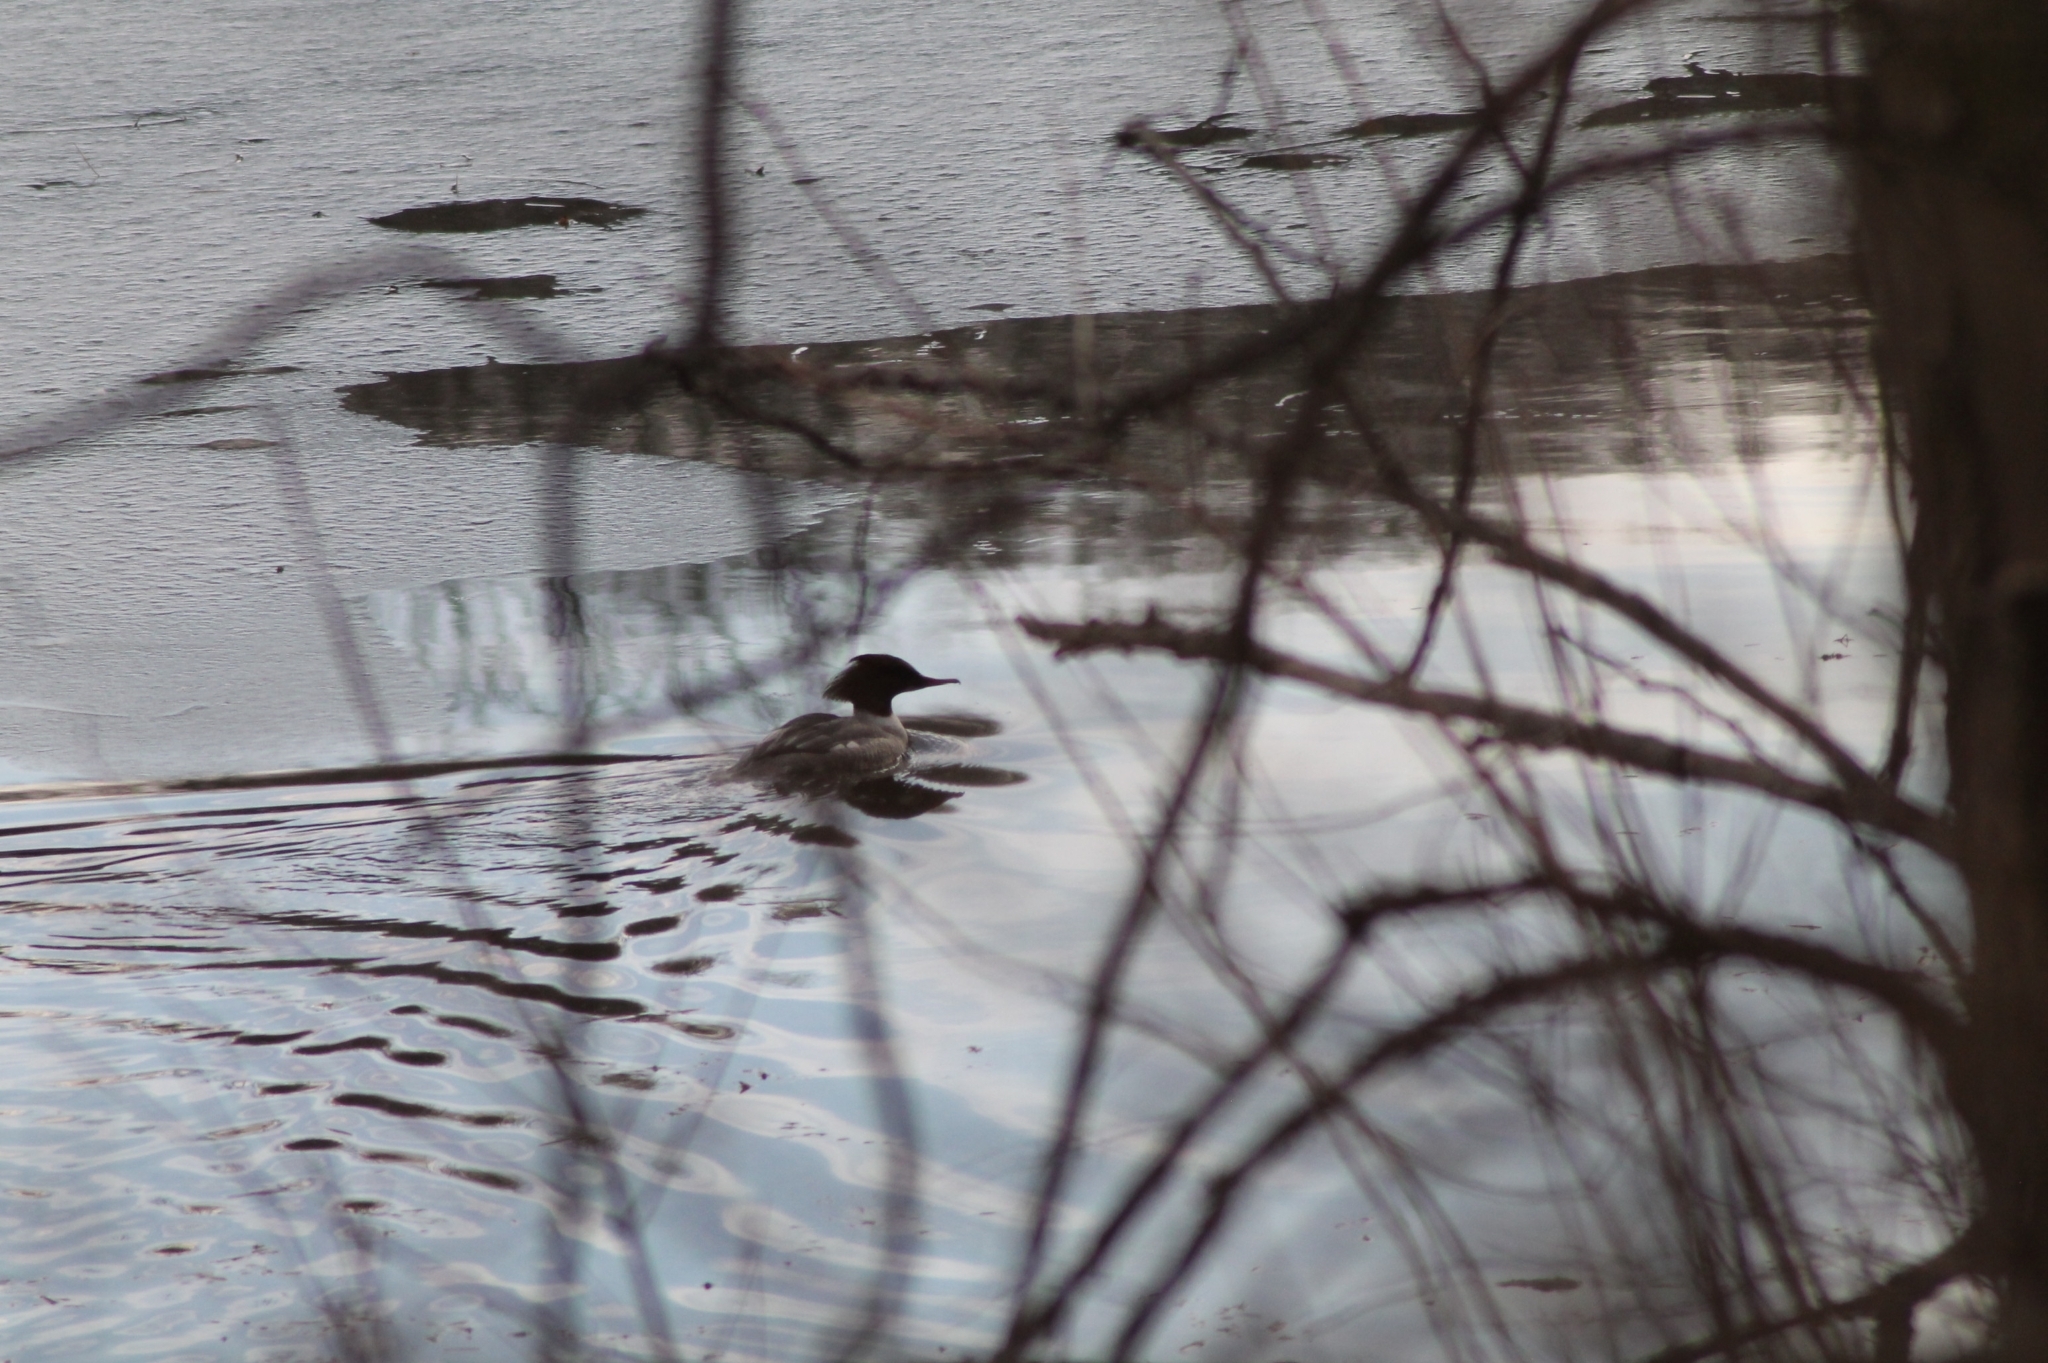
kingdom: Animalia
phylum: Chordata
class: Aves
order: Anseriformes
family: Anatidae
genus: Mergus
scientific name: Mergus merganser
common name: Common merganser
